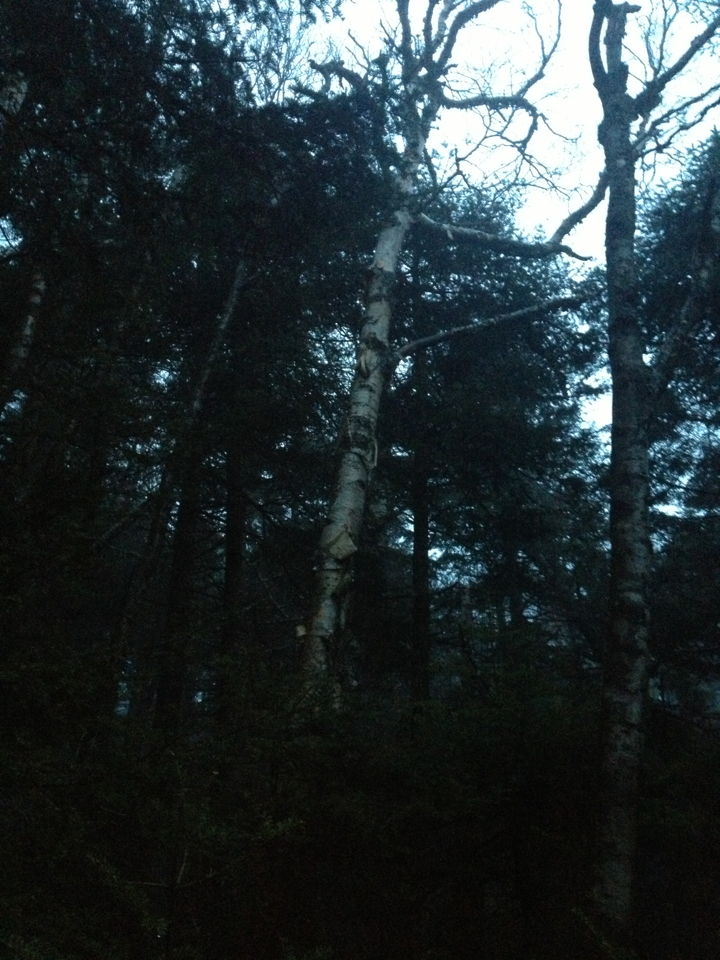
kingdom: Plantae
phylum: Tracheophyta
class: Magnoliopsida
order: Fagales
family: Betulaceae
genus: Betula
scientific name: Betula cordifolia
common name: Mountain white birch
